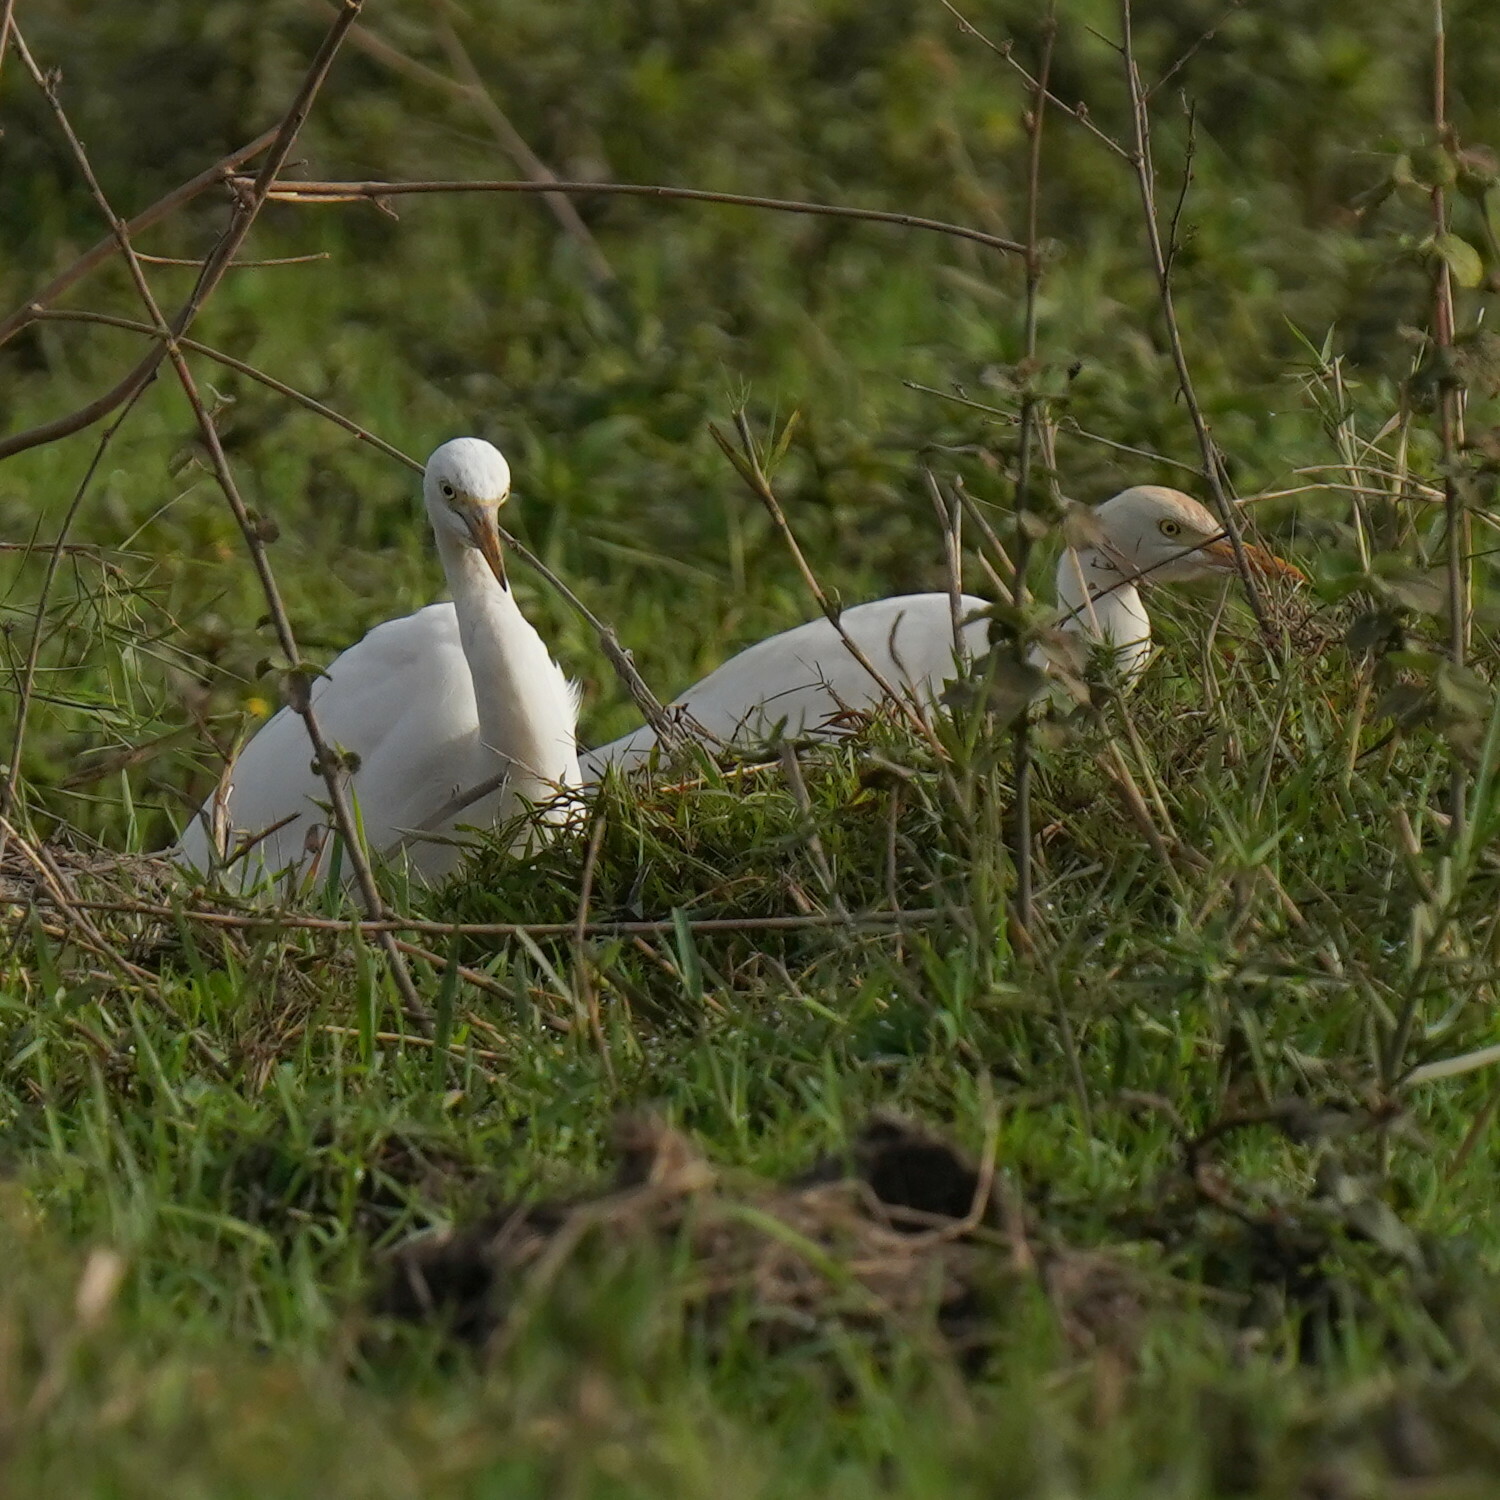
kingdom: Animalia
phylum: Chordata
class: Aves
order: Pelecaniformes
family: Ardeidae
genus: Bubulcus
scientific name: Bubulcus ibis
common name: Cattle egret
